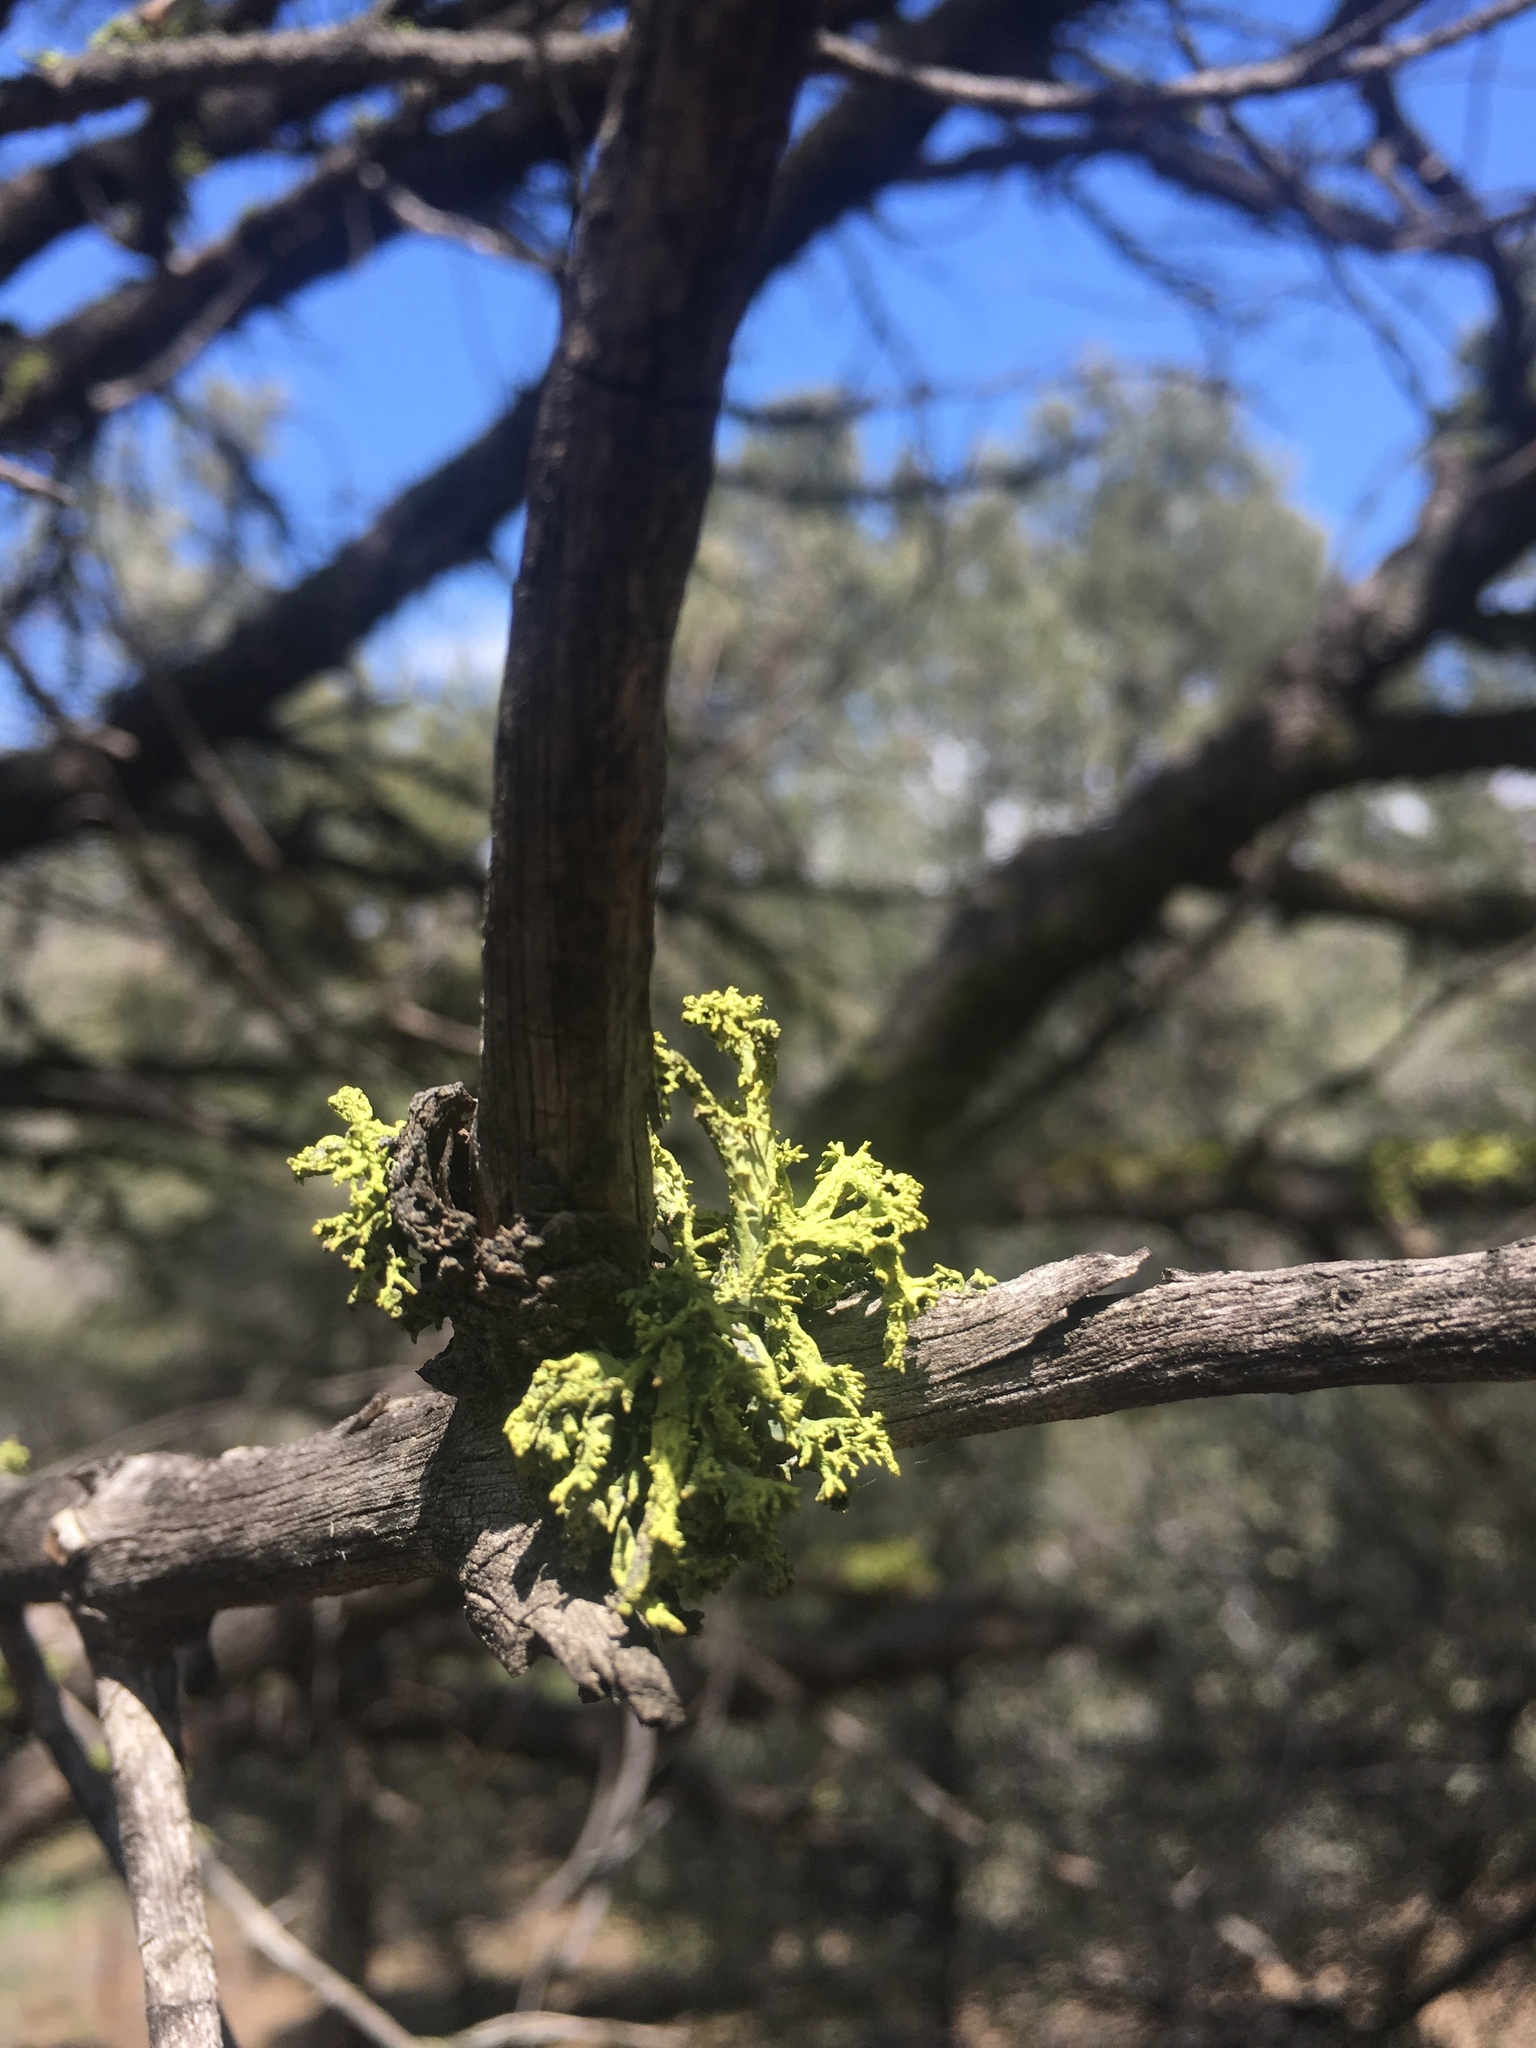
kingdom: Fungi
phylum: Ascomycota
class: Lecanoromycetes
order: Lecanorales
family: Parmeliaceae
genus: Letharia
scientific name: Letharia columbiana
